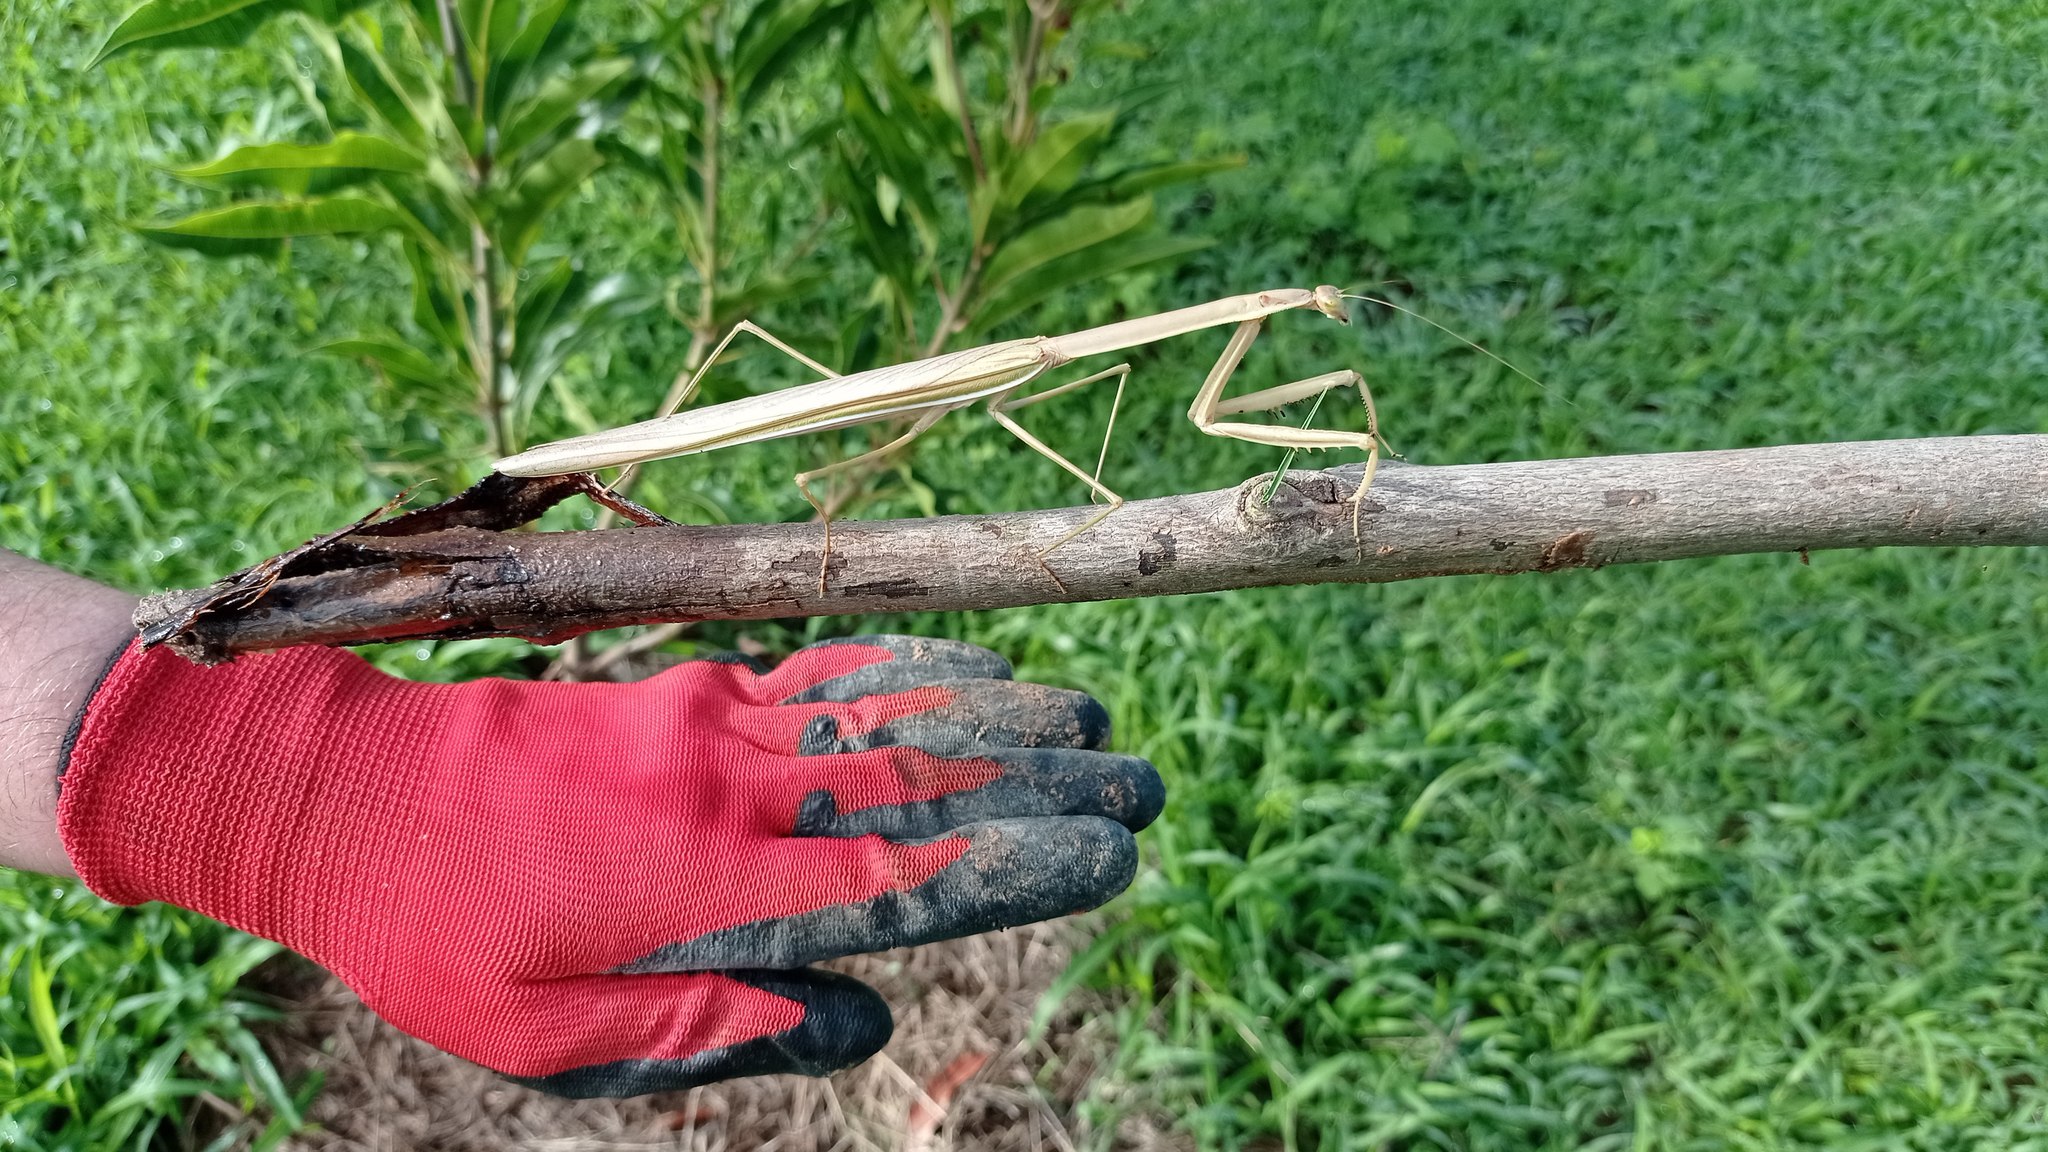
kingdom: Animalia
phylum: Arthropoda
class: Insecta
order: Mantodea
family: Mantidae
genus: Tenodera
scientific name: Tenodera superstitiosa
